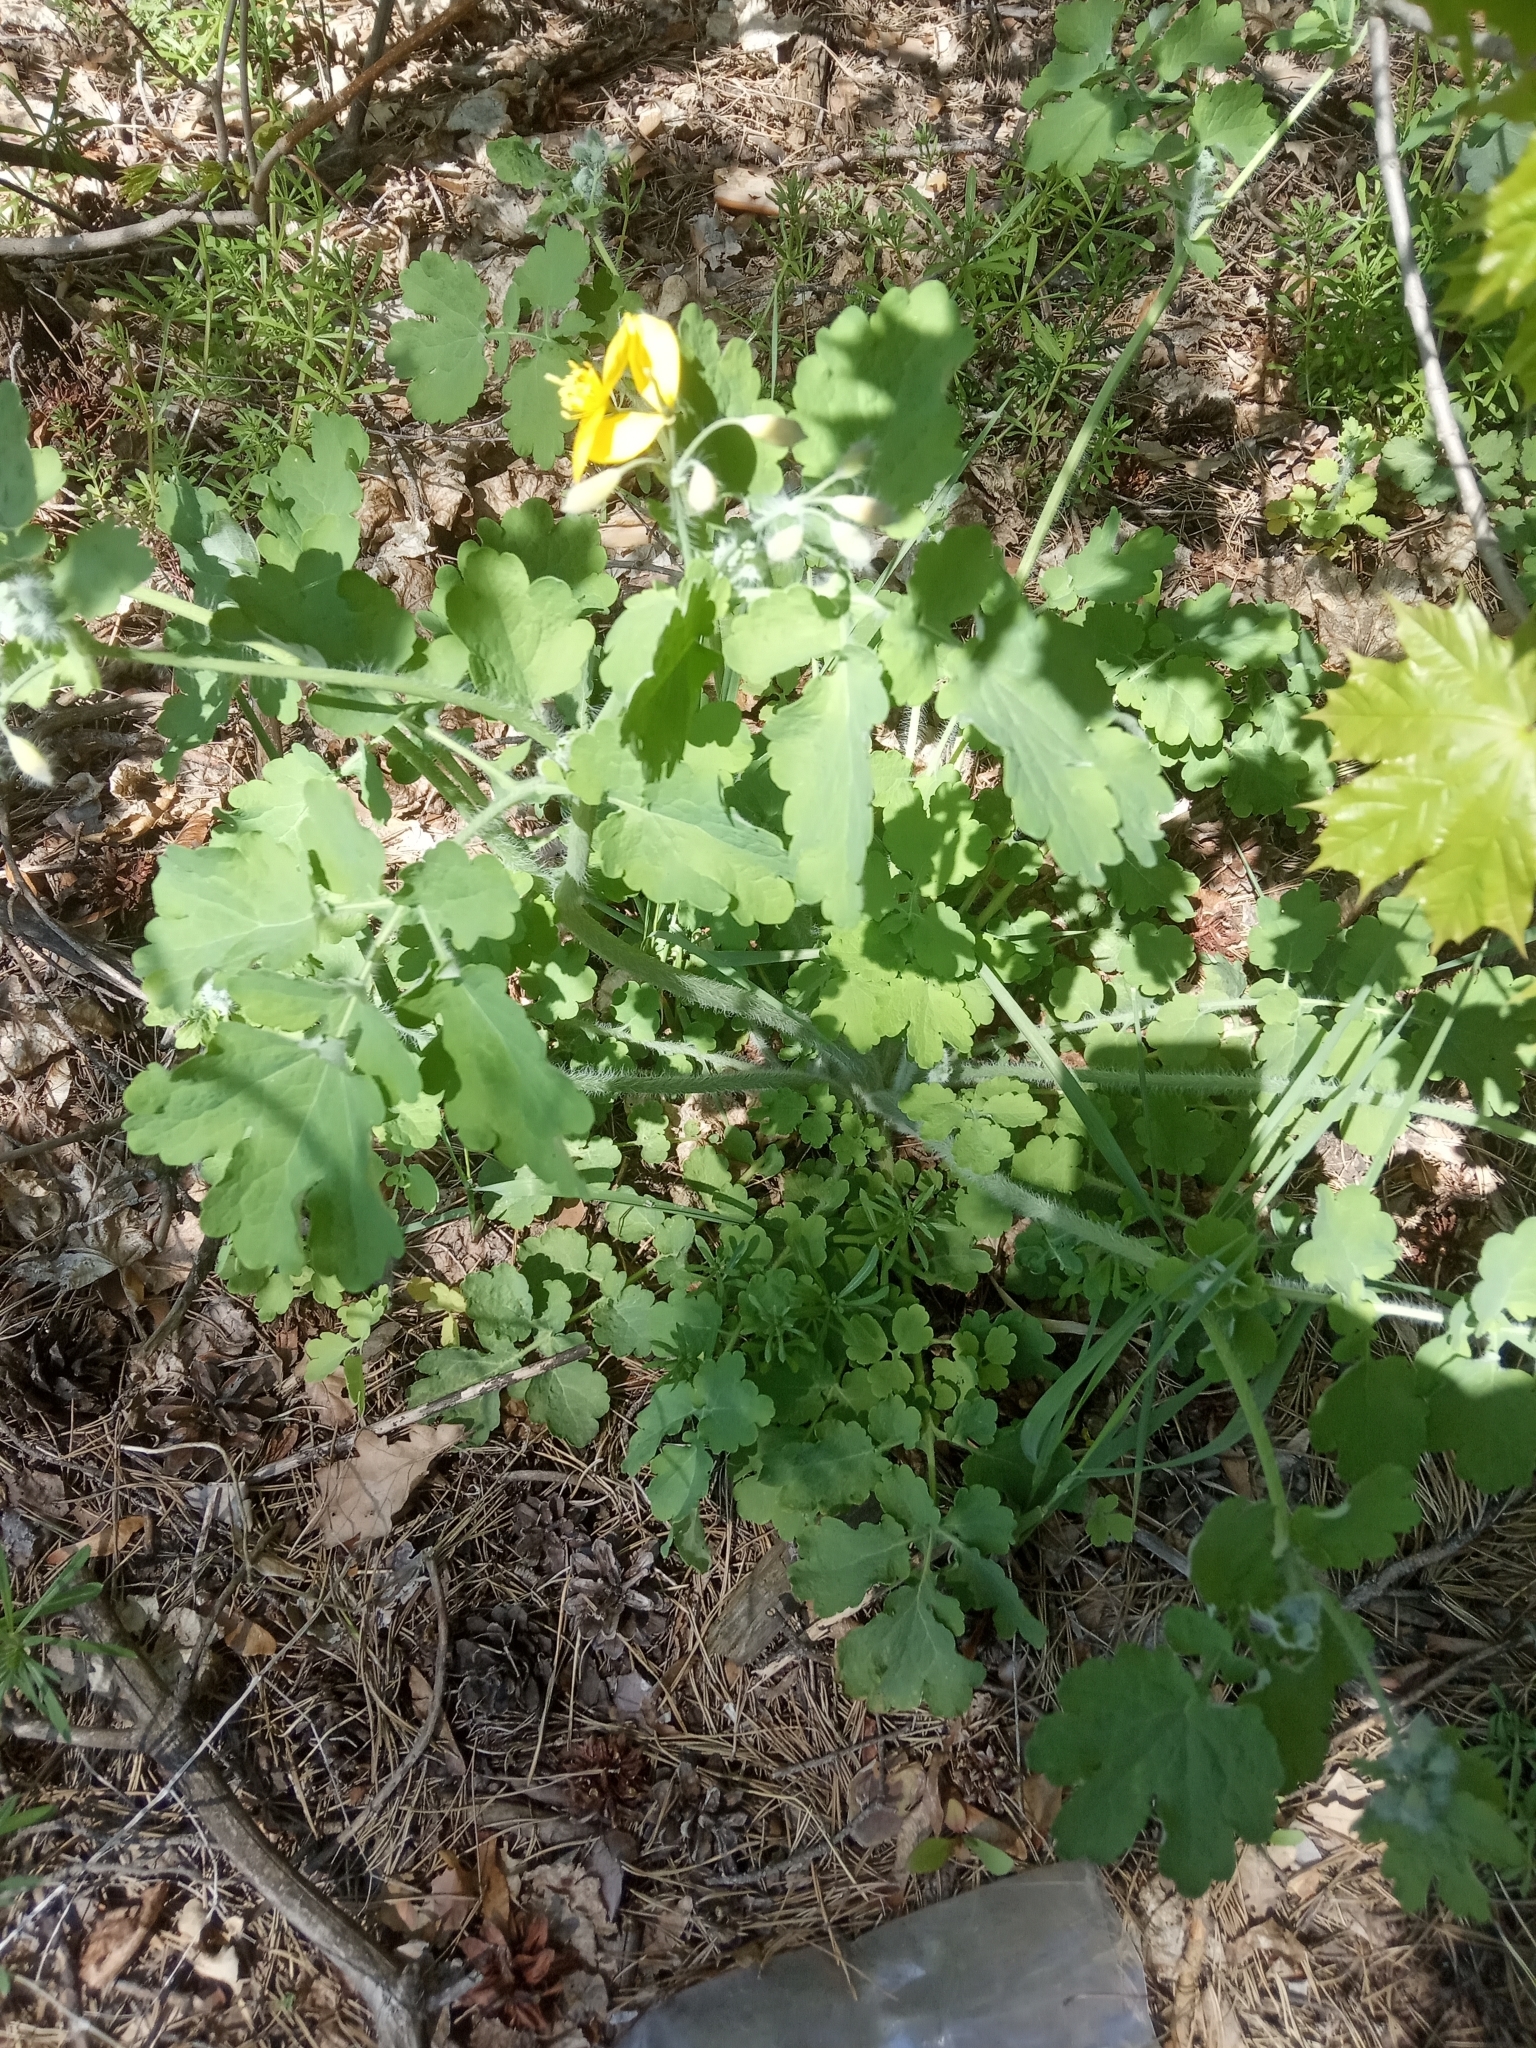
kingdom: Plantae
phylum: Tracheophyta
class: Magnoliopsida
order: Ranunculales
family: Papaveraceae
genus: Chelidonium
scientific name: Chelidonium majus
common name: Greater celandine
